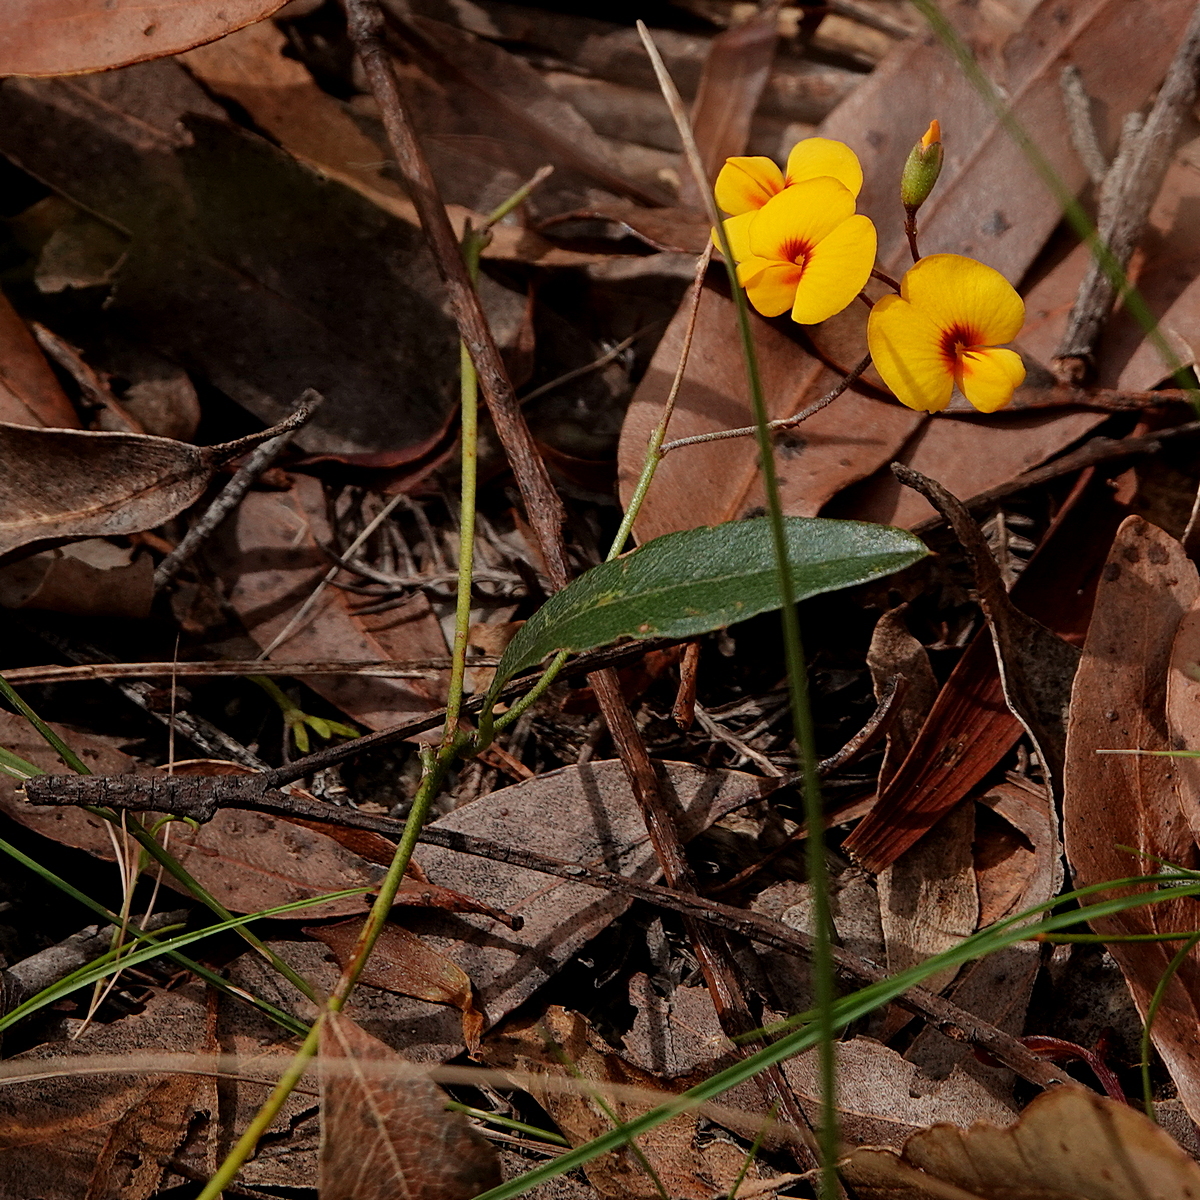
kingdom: Plantae
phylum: Tracheophyta
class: Magnoliopsida
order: Fabales
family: Fabaceae
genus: Podolobium
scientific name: Podolobium scandens
